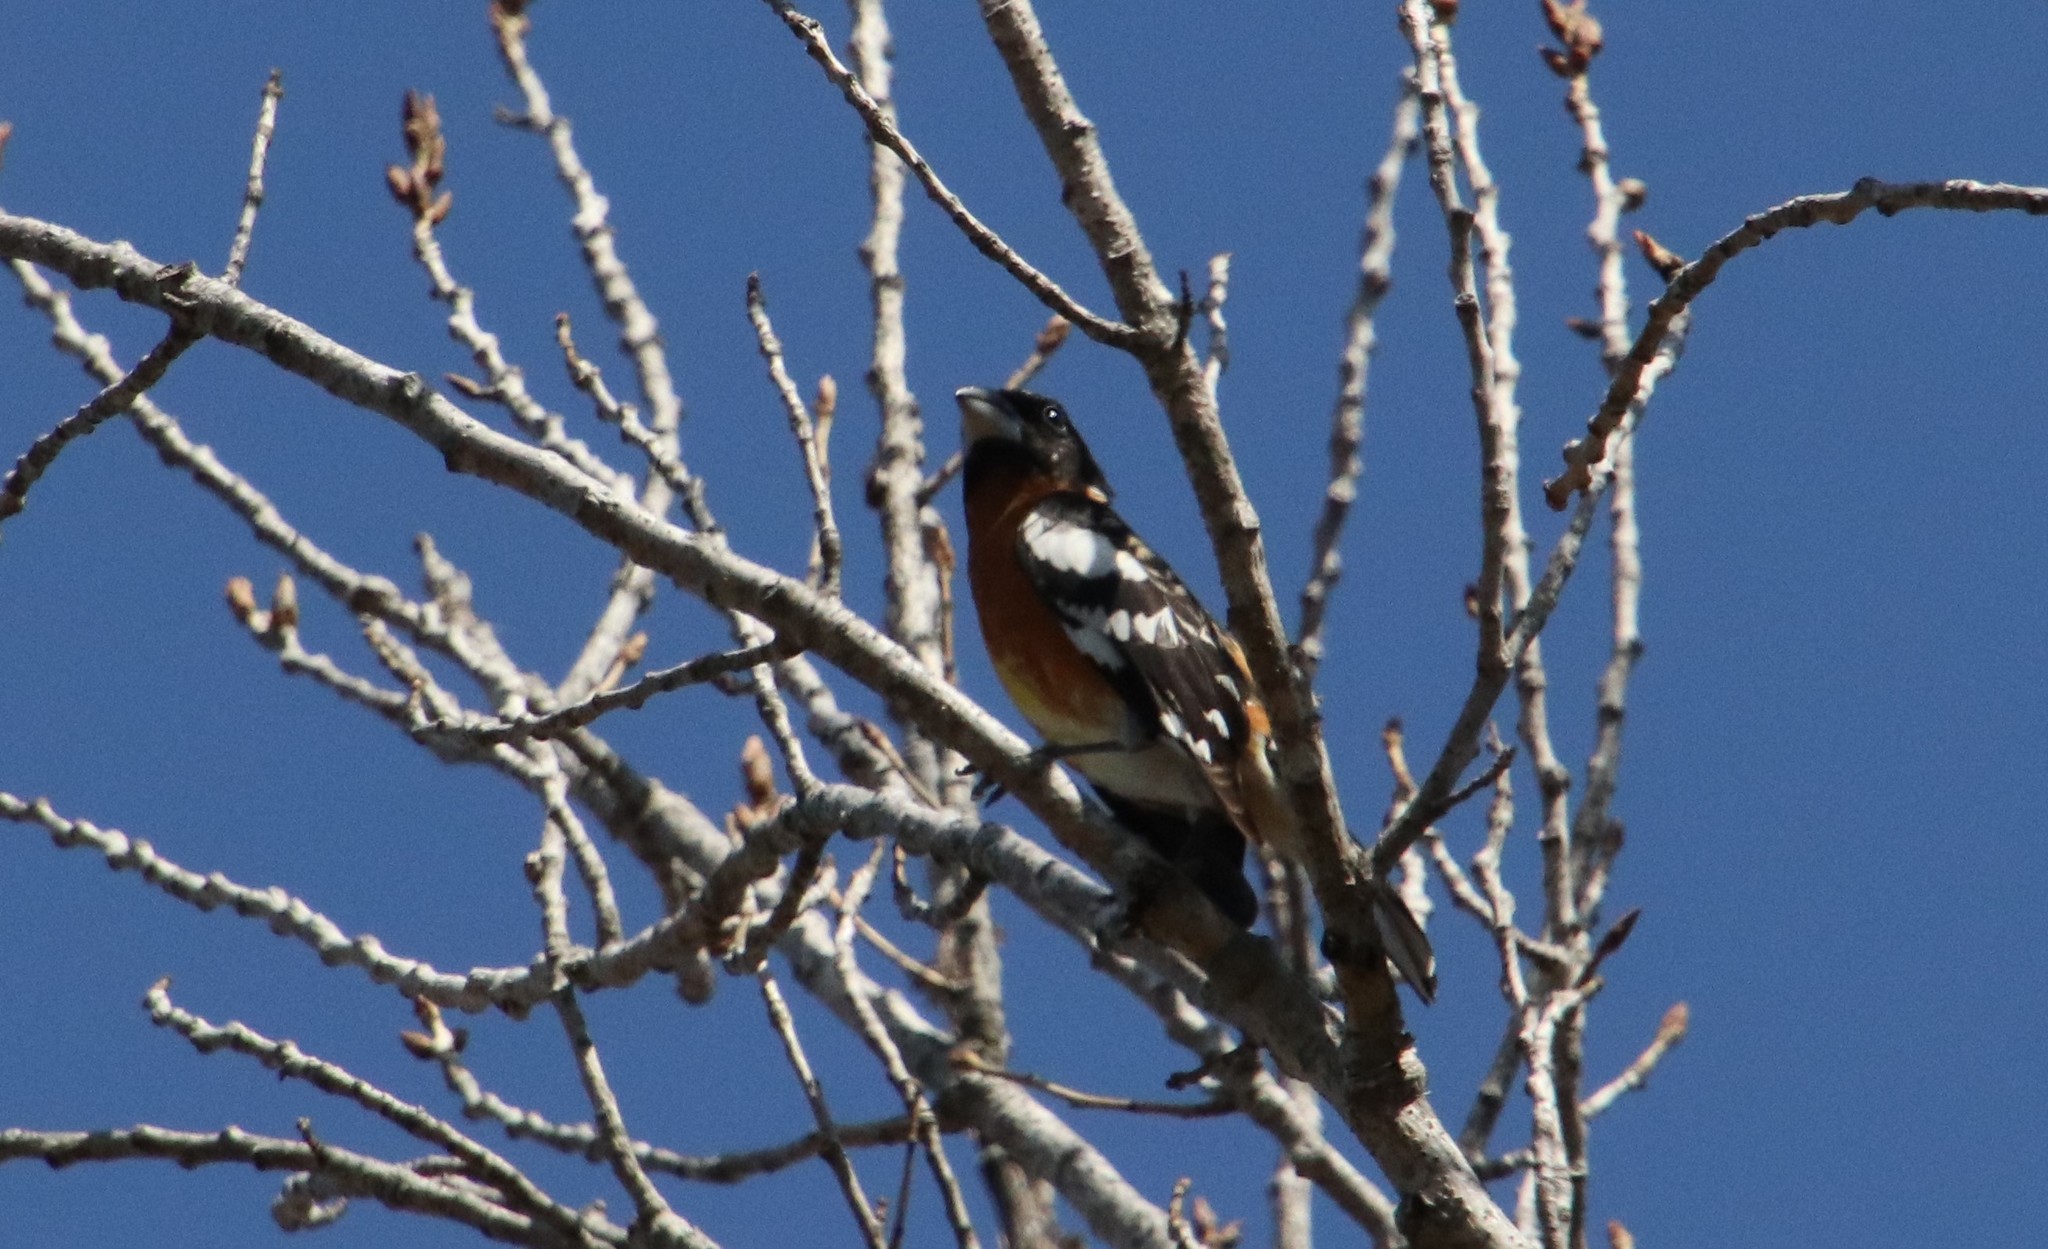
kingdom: Animalia
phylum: Chordata
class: Aves
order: Passeriformes
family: Cardinalidae
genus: Pheucticus
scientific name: Pheucticus melanocephalus
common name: Black-headed grosbeak
